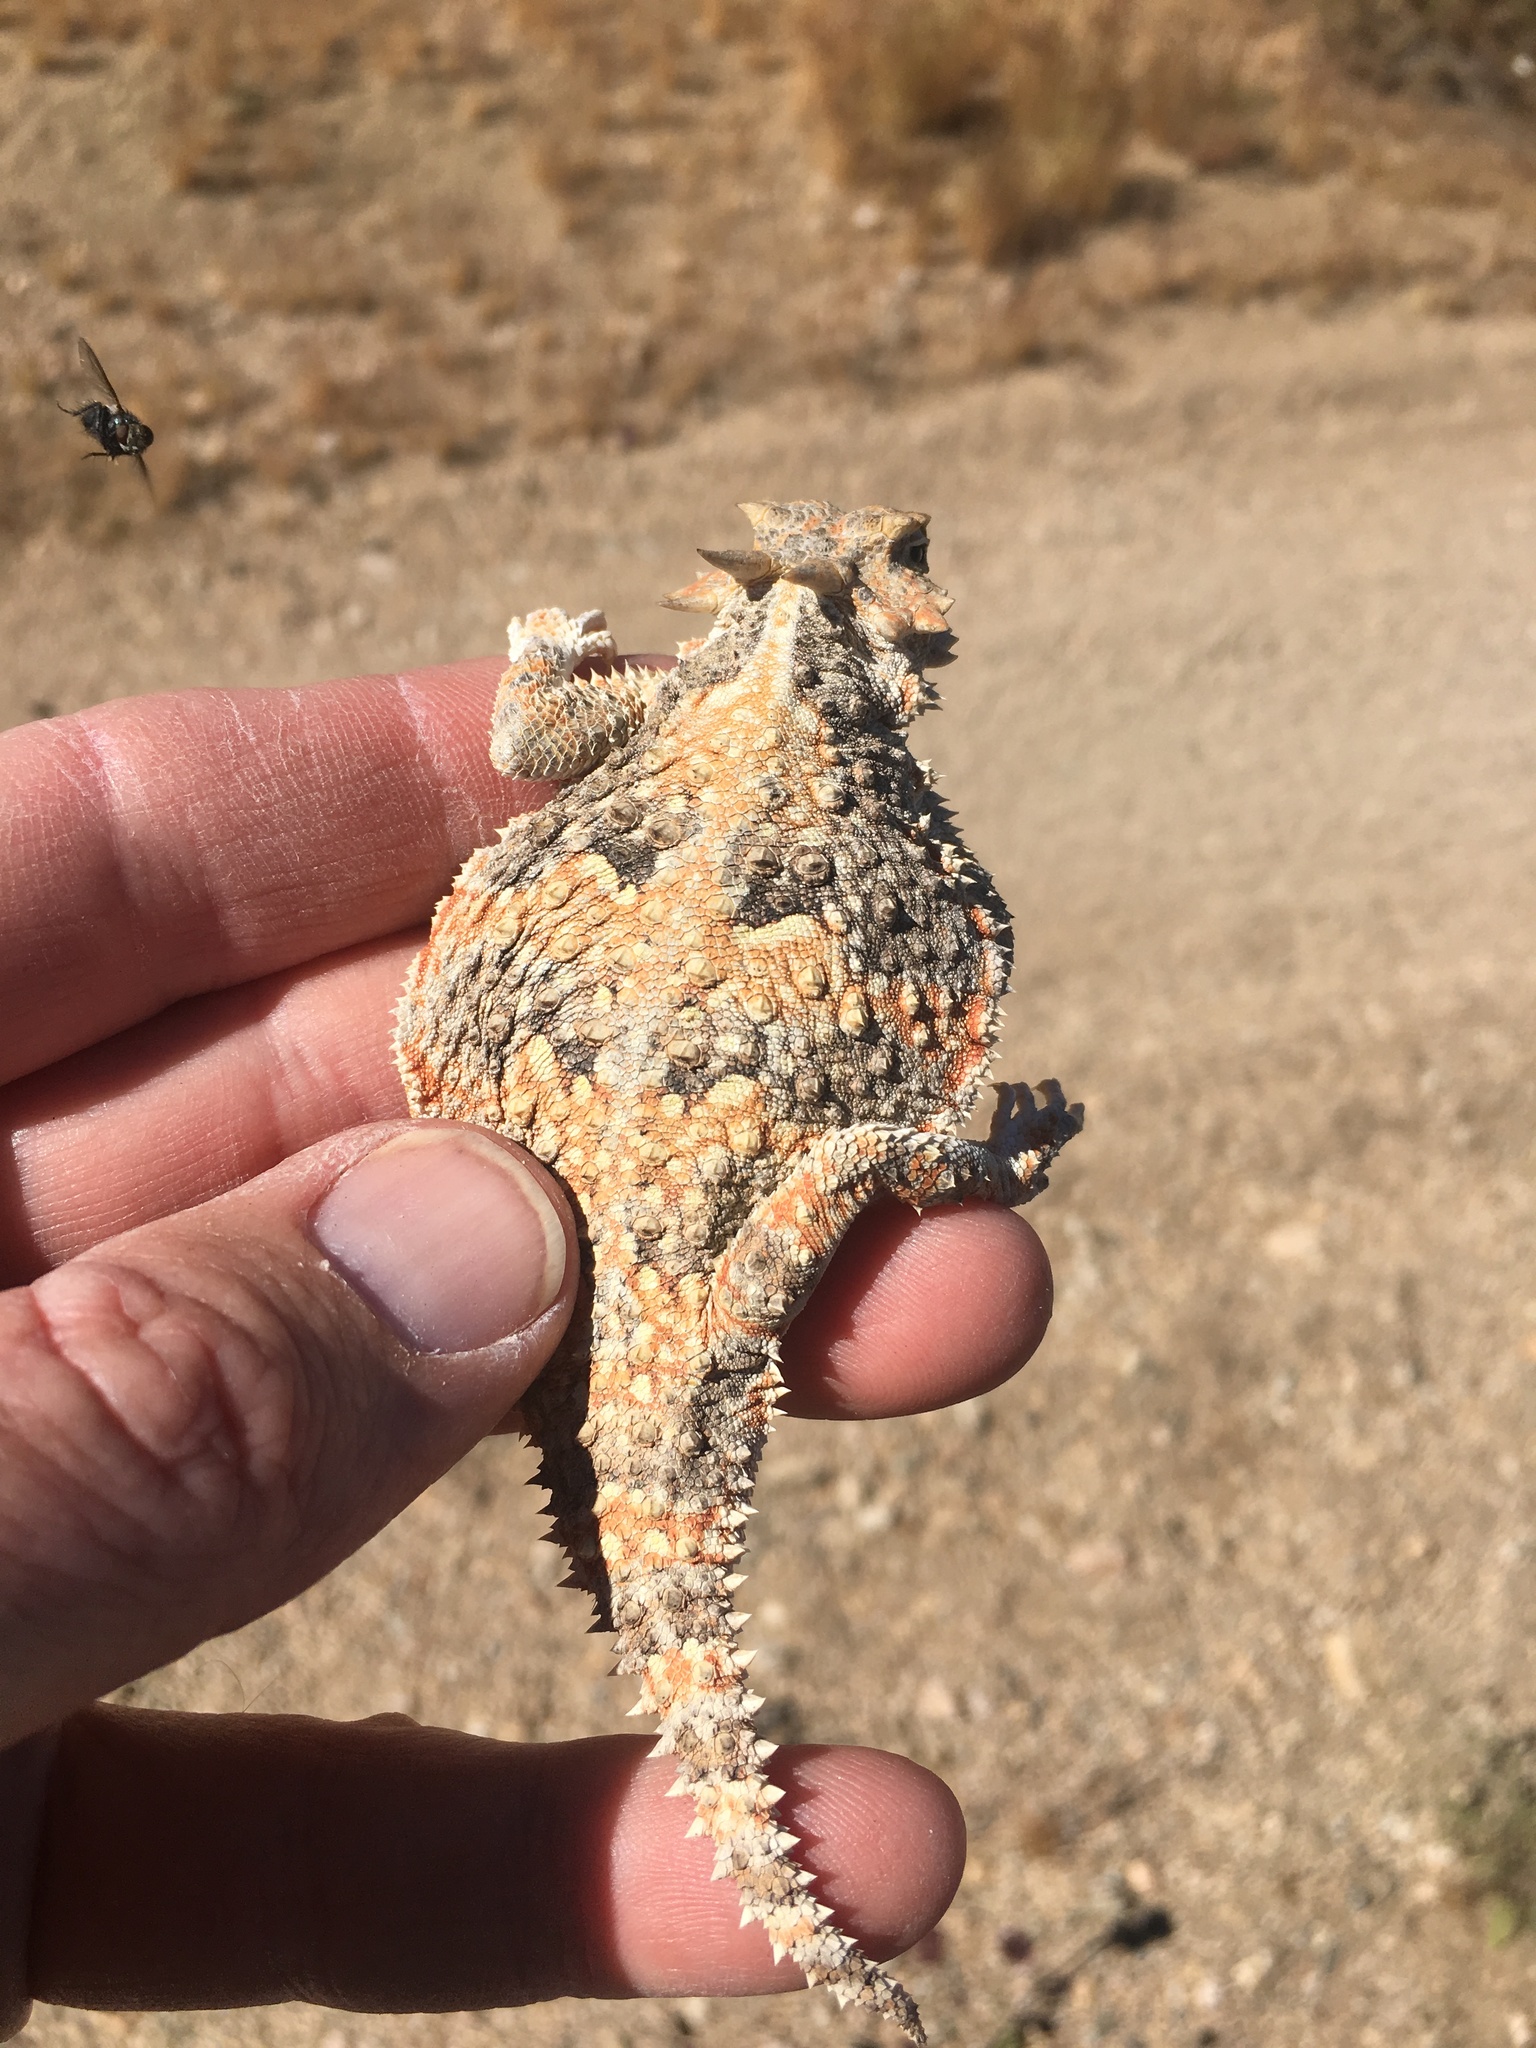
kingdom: Animalia
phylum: Chordata
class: Squamata
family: Phrynosomatidae
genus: Phrynosoma
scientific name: Phrynosoma platyrhinos
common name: Desert horned lizard
